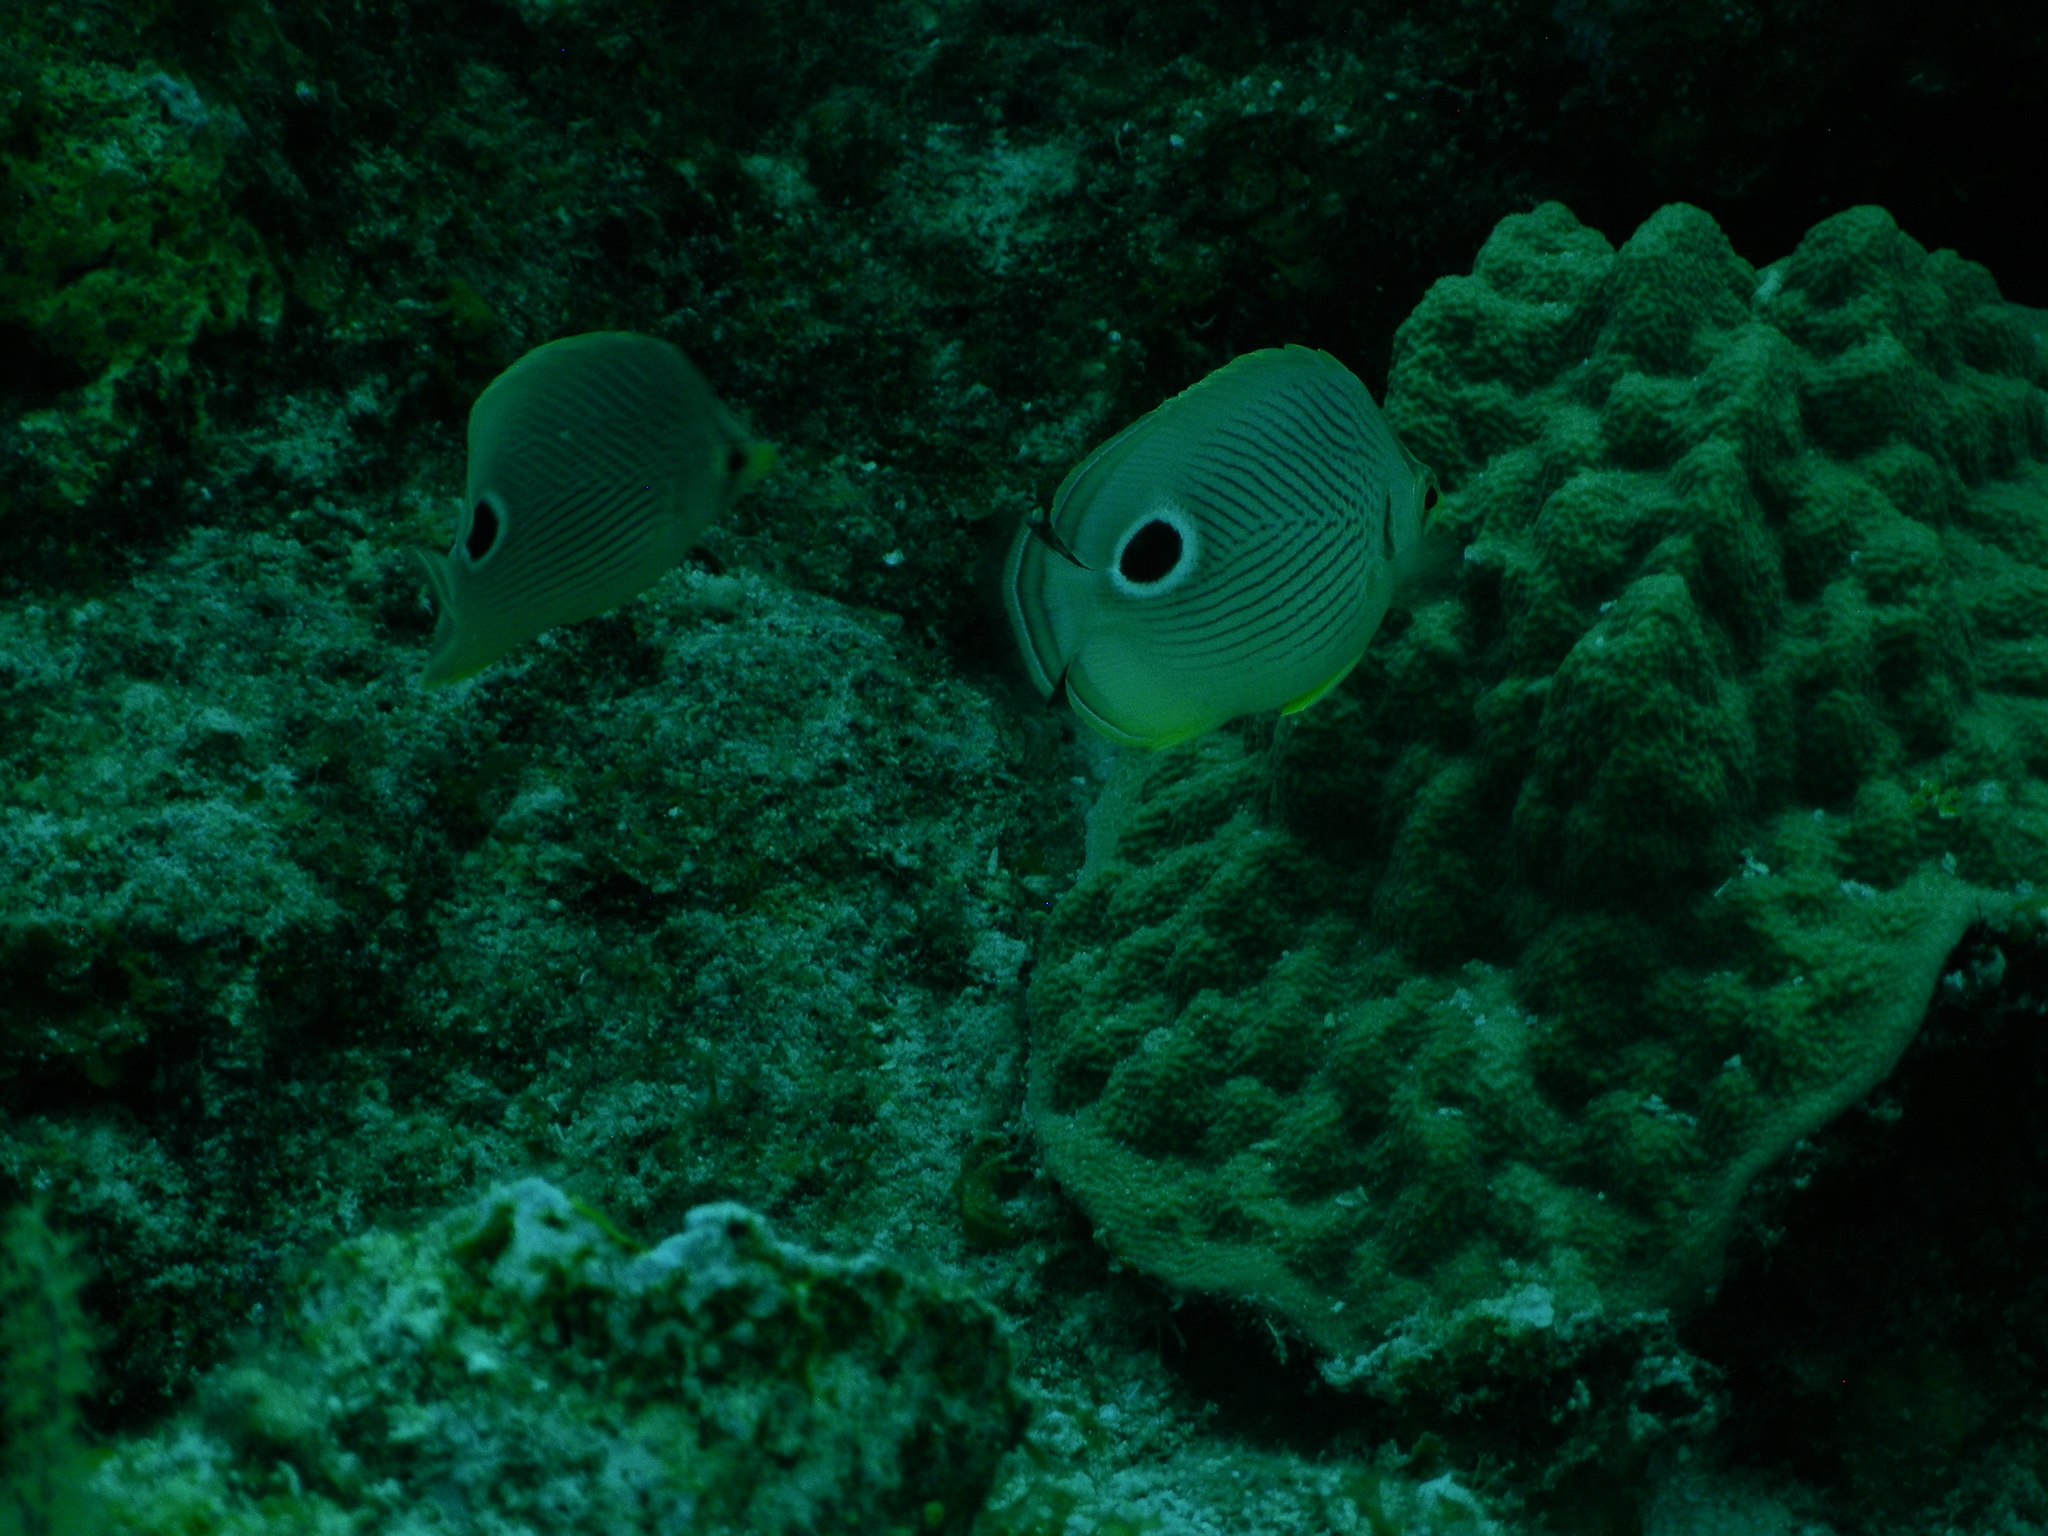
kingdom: Animalia
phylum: Chordata
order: Perciformes
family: Chaetodontidae
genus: Chaetodon
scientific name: Chaetodon capistratus
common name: Kete
